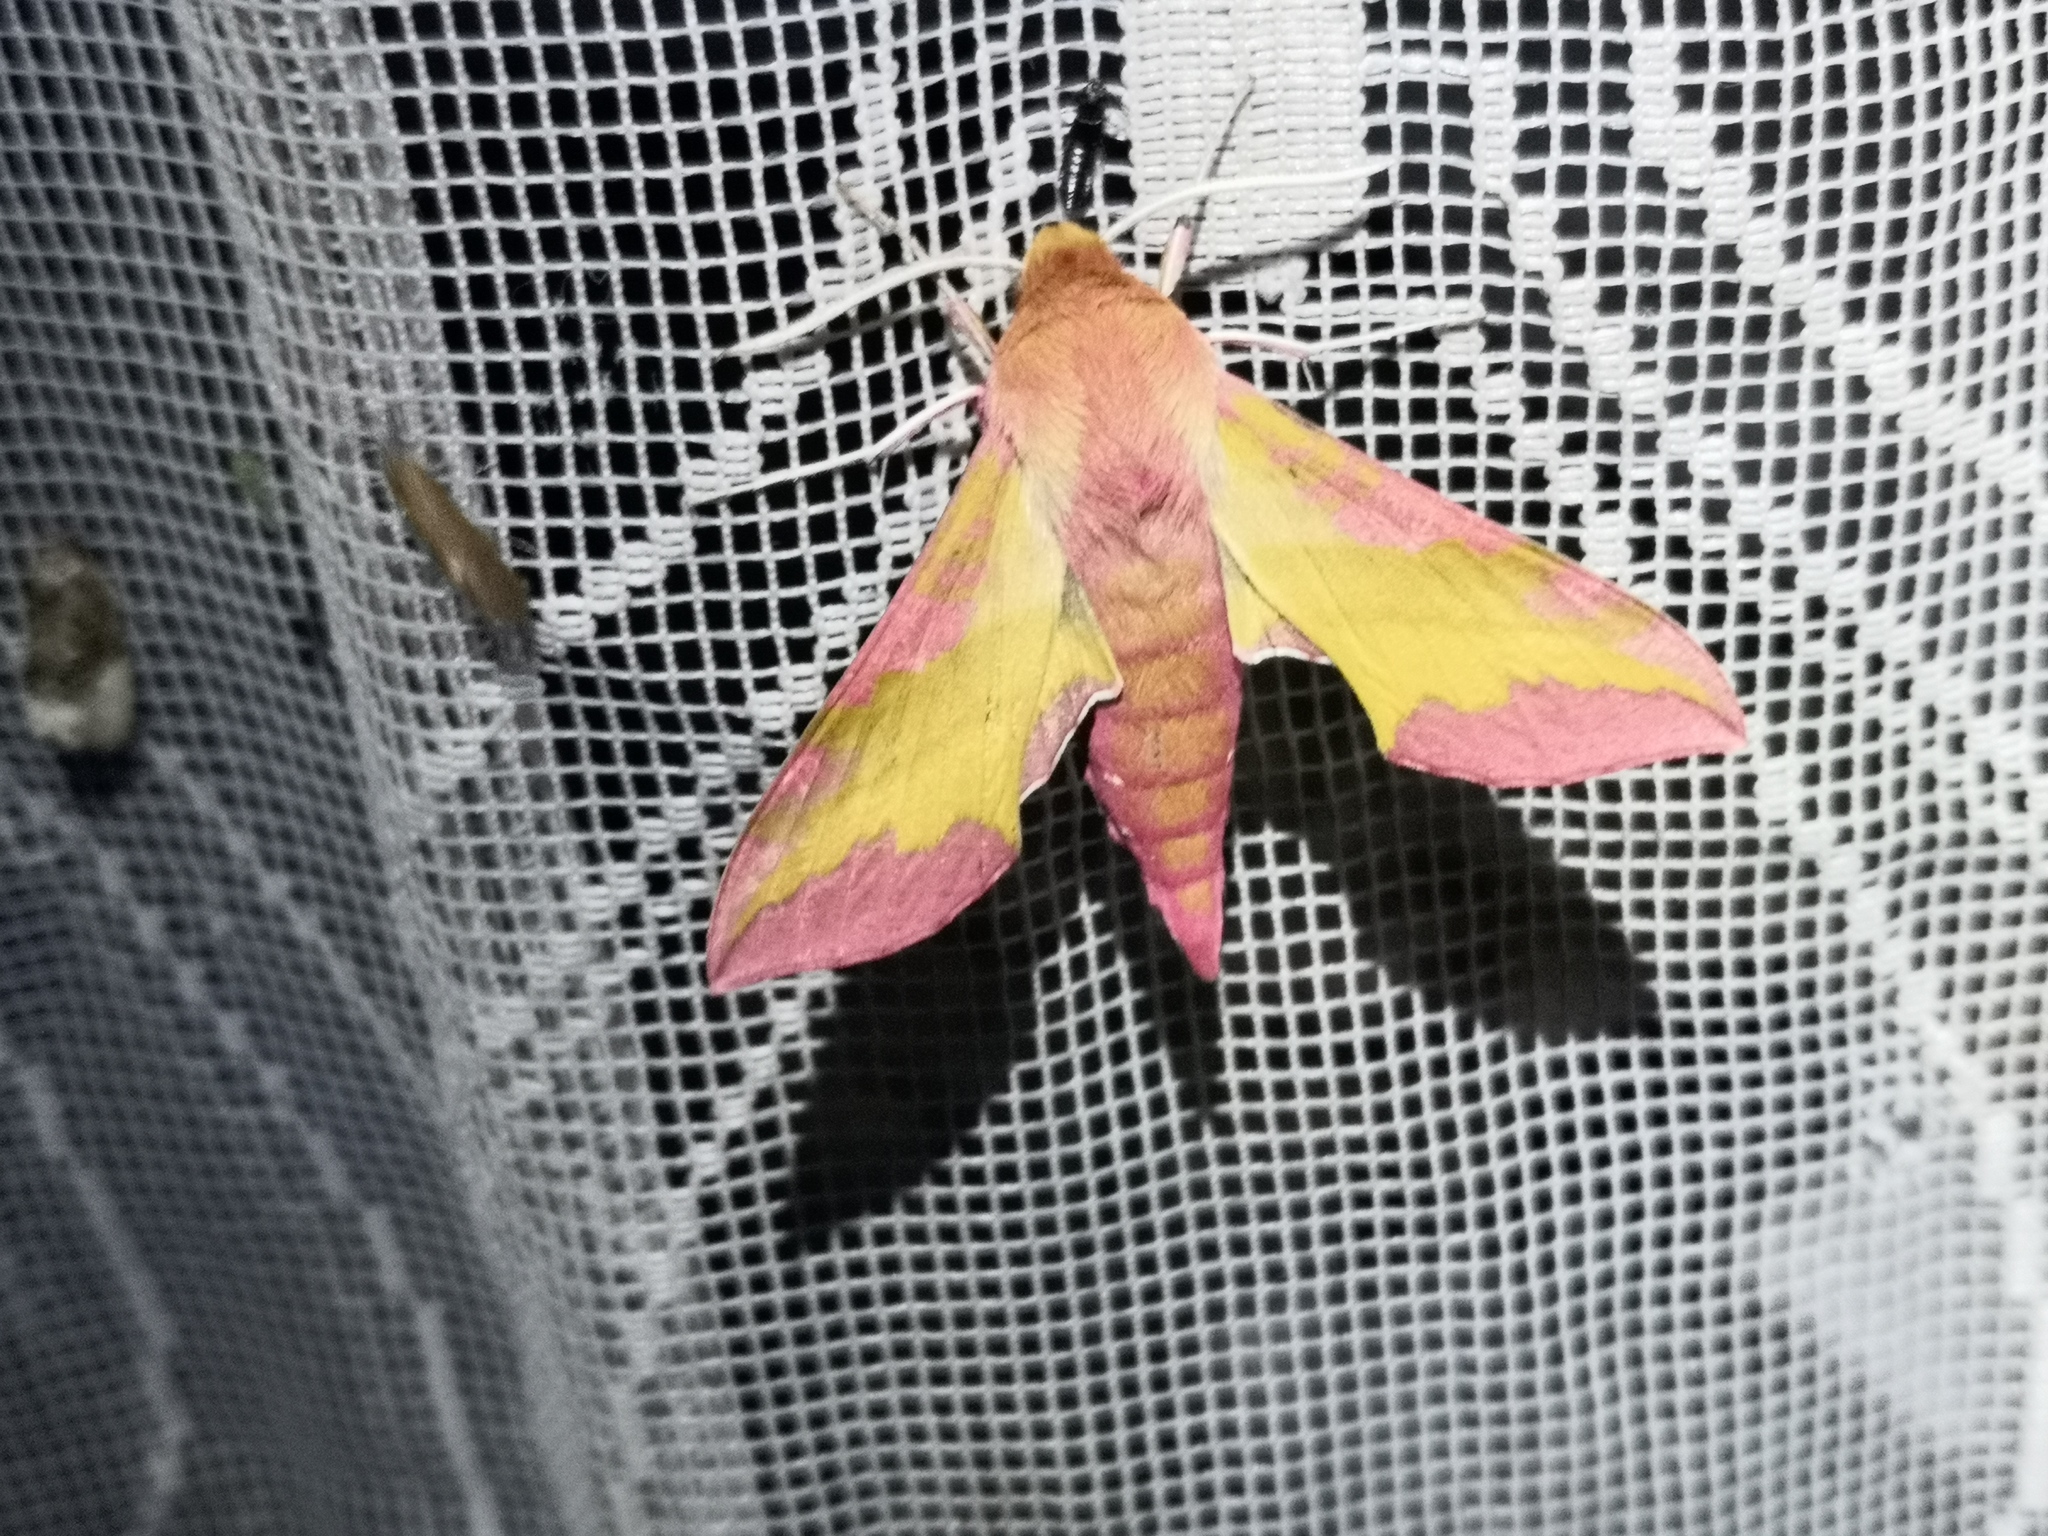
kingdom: Animalia
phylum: Arthropoda
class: Insecta
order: Lepidoptera
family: Sphingidae
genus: Deilephila
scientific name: Deilephila porcellus
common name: Small elephant hawk-moth
